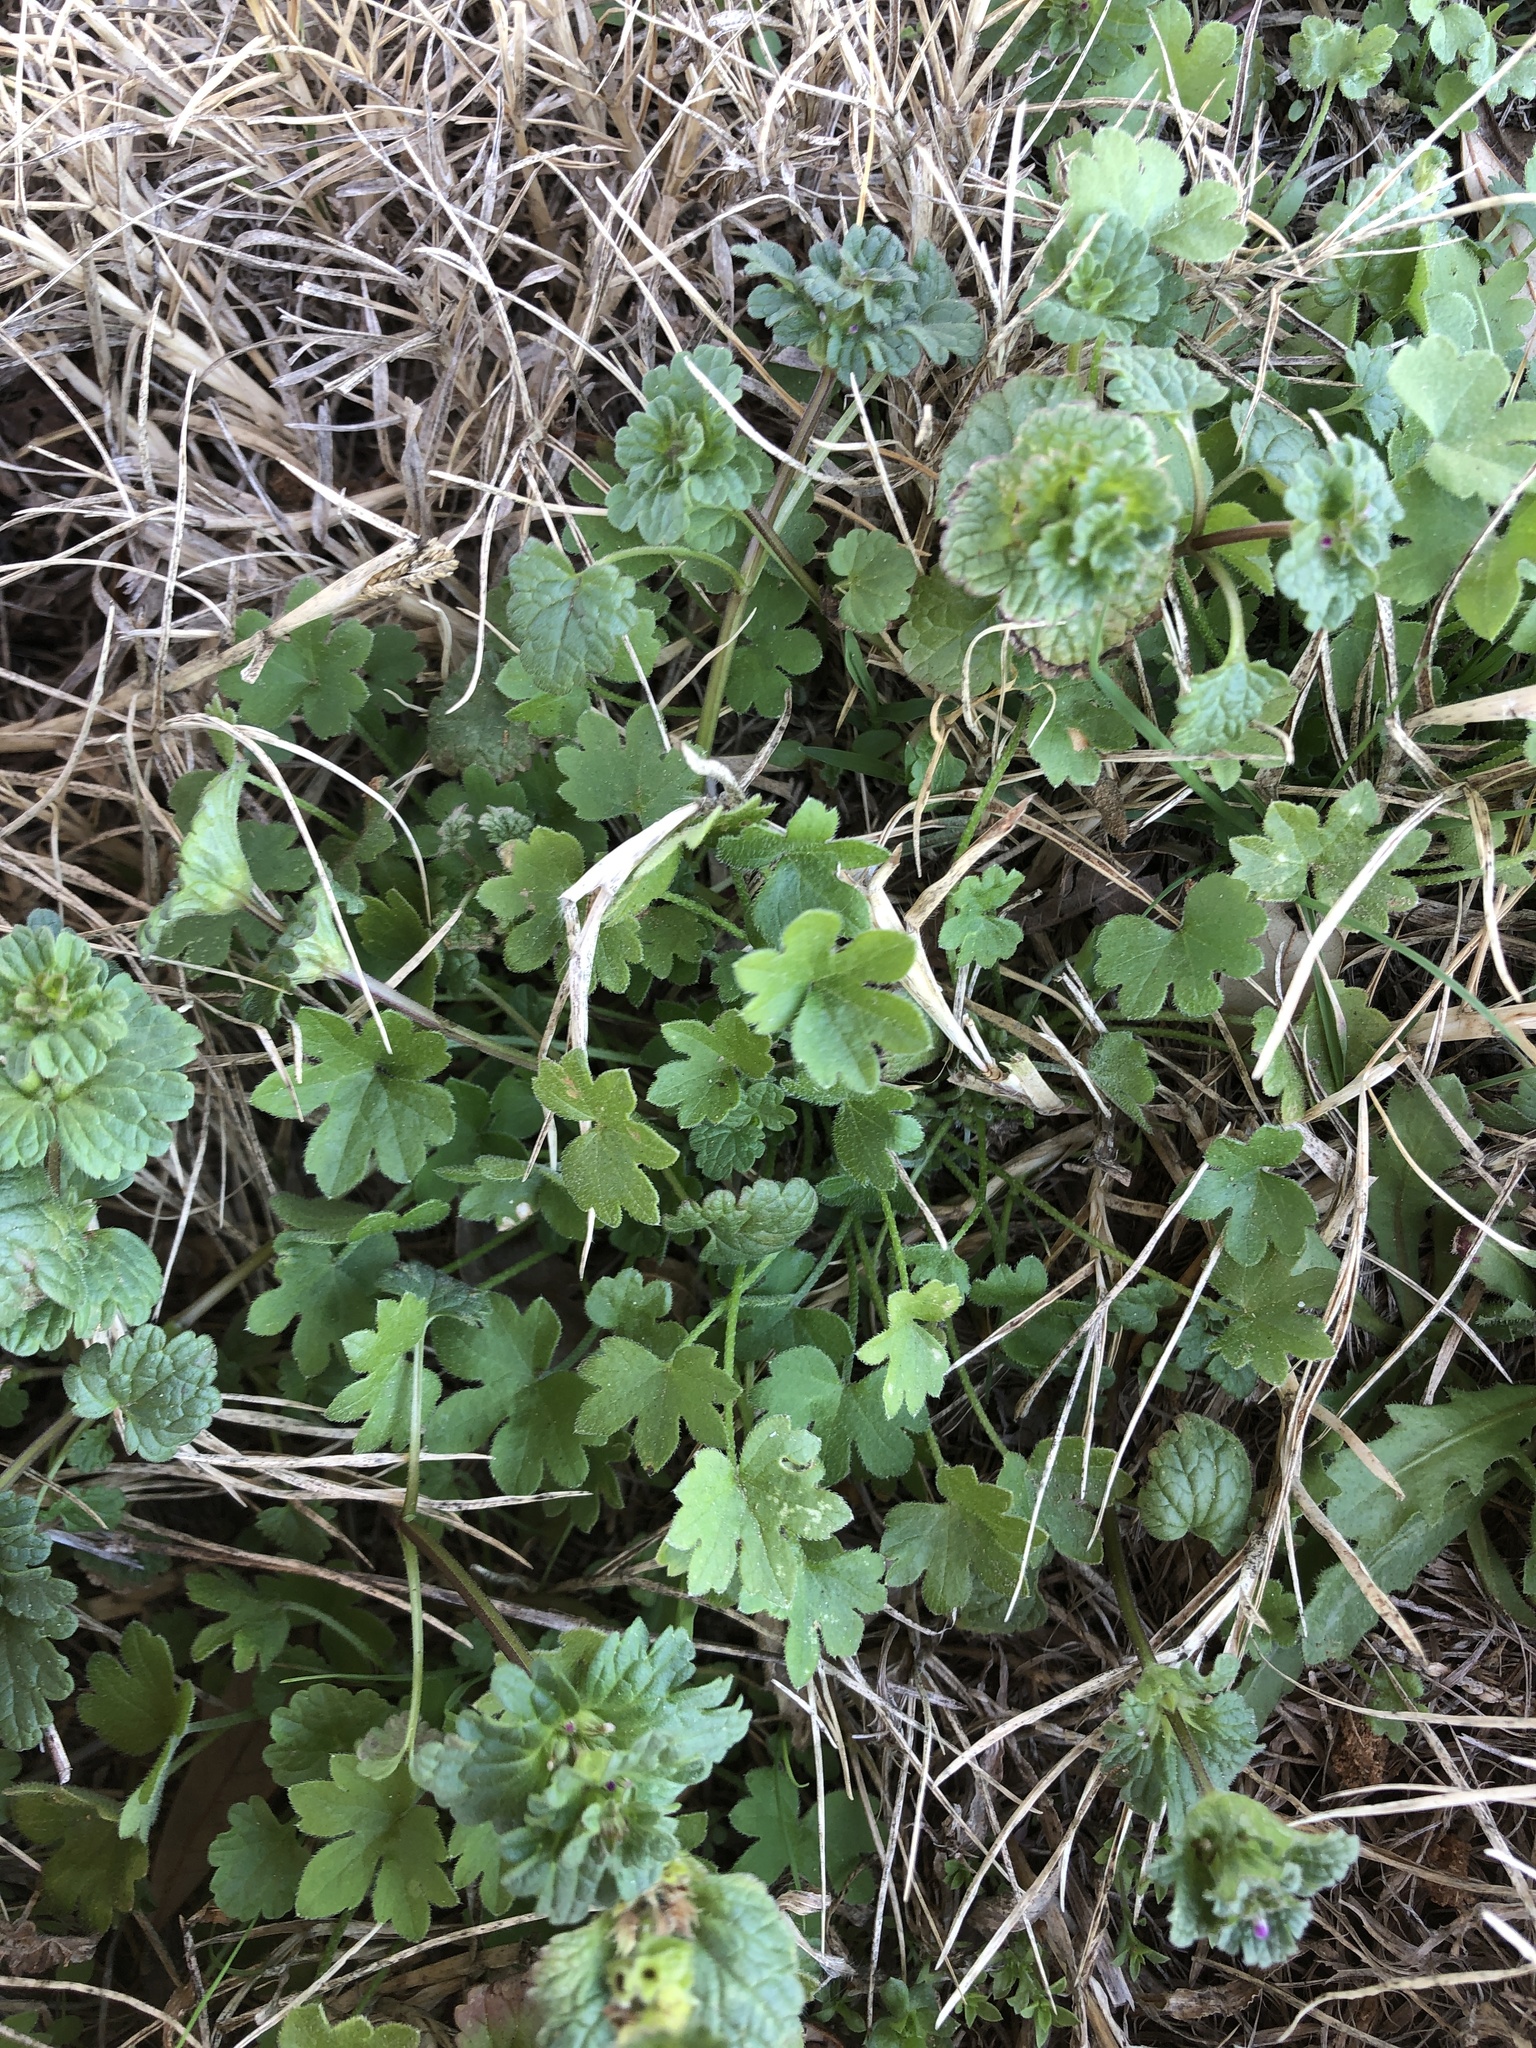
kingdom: Plantae
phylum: Tracheophyta
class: Magnoliopsida
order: Apiales
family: Apiaceae
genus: Bowlesia
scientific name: Bowlesia incana
